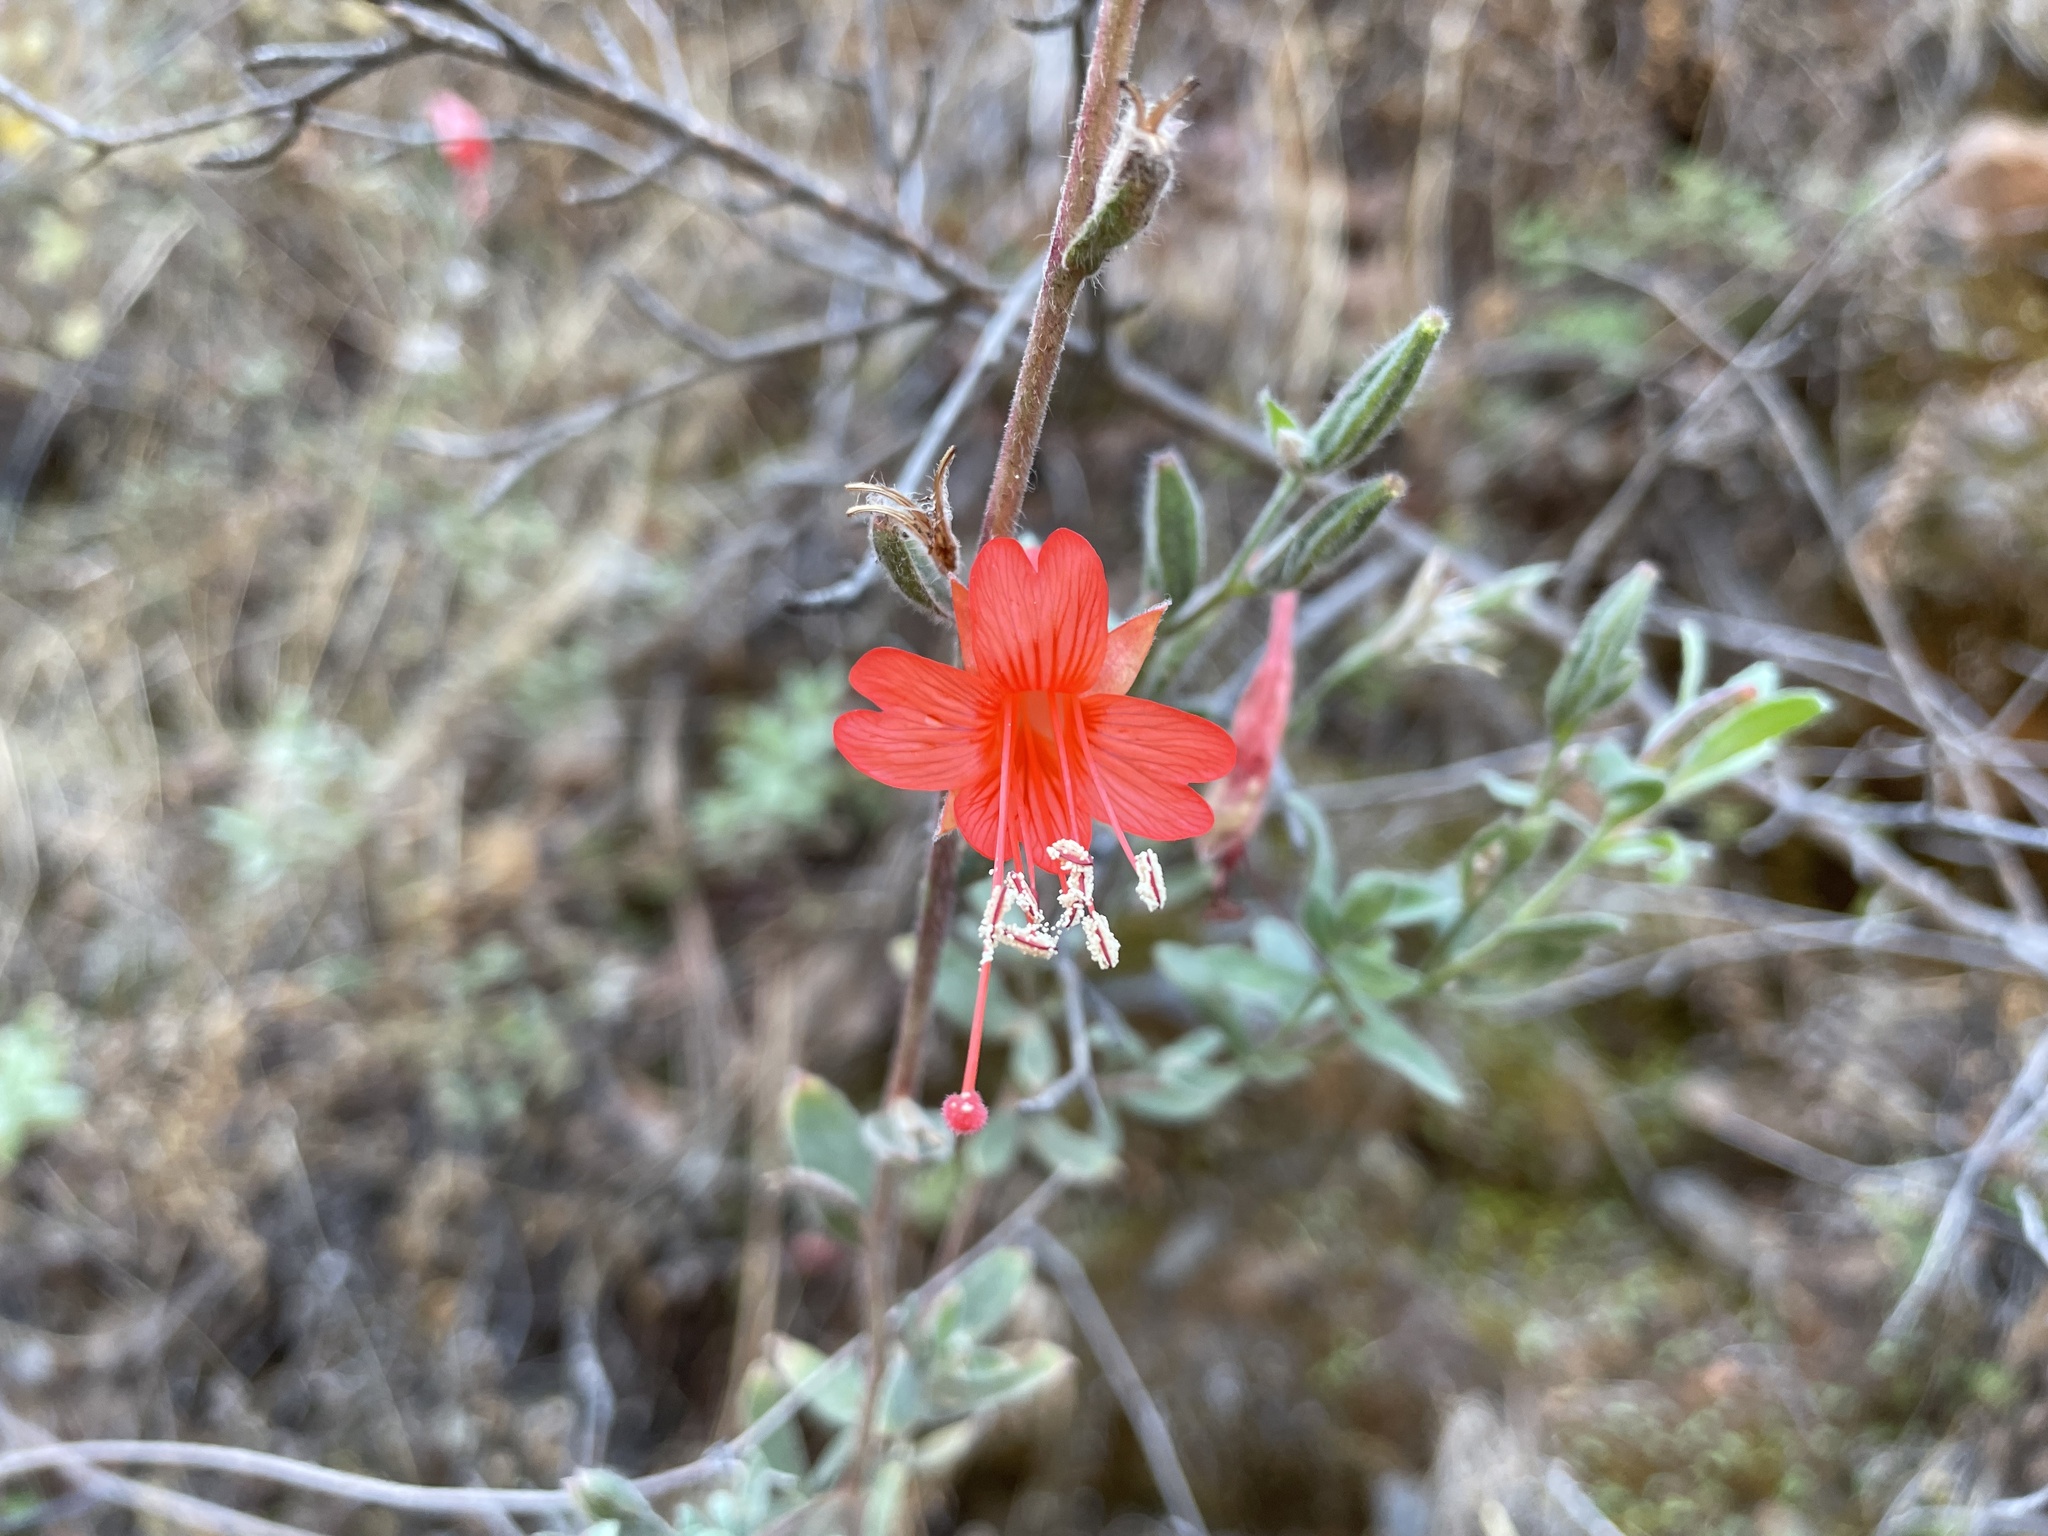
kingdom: Plantae
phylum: Tracheophyta
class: Magnoliopsida
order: Myrtales
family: Onagraceae
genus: Epilobium
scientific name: Epilobium canum
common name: California-fuchsia
